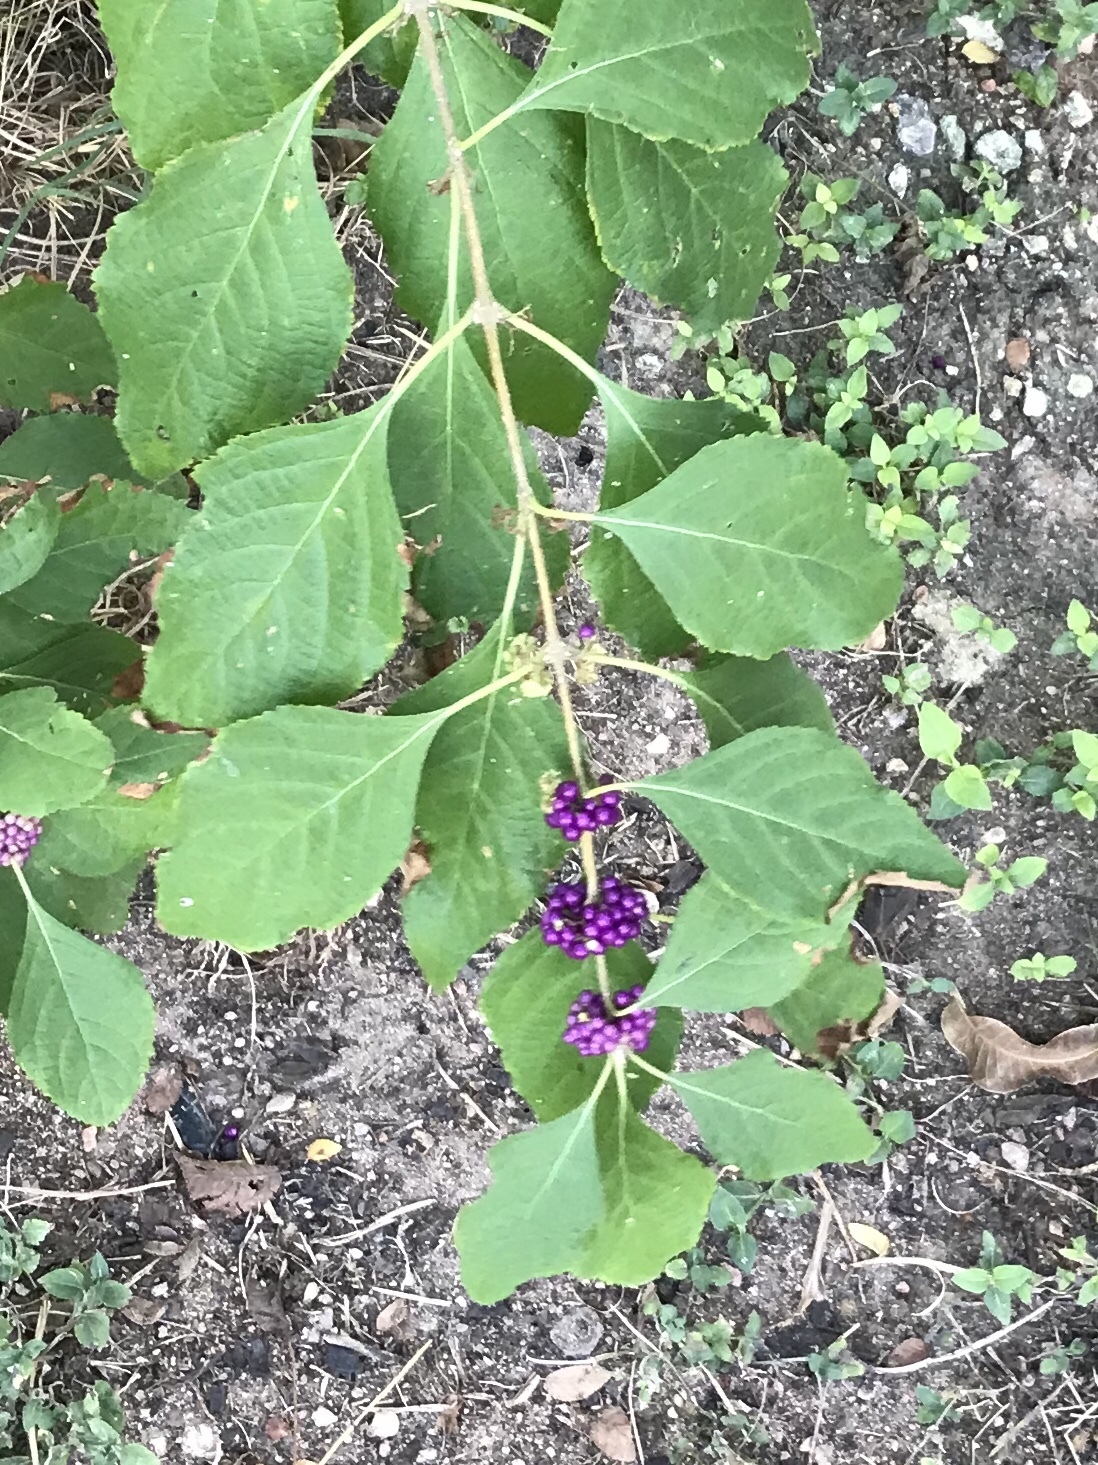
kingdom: Plantae
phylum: Tracheophyta
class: Magnoliopsida
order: Lamiales
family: Lamiaceae
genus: Callicarpa
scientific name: Callicarpa americana
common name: American beautyberry
